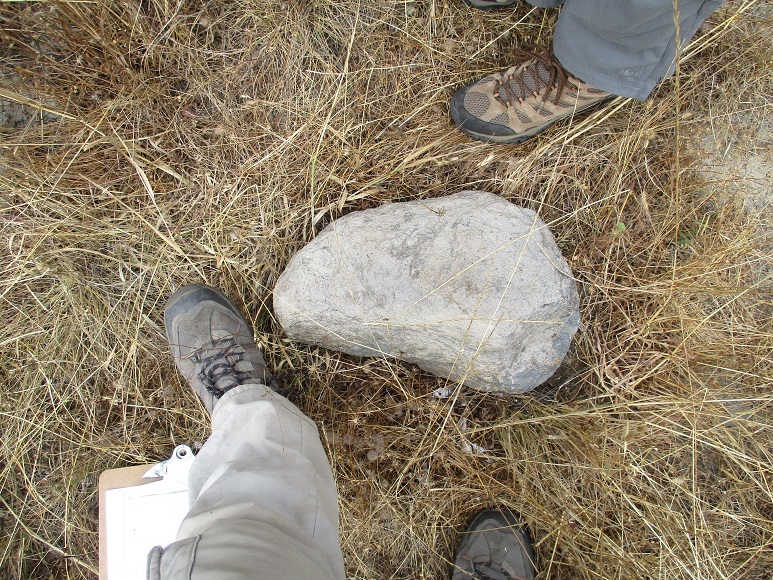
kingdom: Animalia
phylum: Chordata
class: Squamata
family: Phrynosomatidae
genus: Sceloporus
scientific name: Sceloporus occidentalis
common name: Western fence lizard
